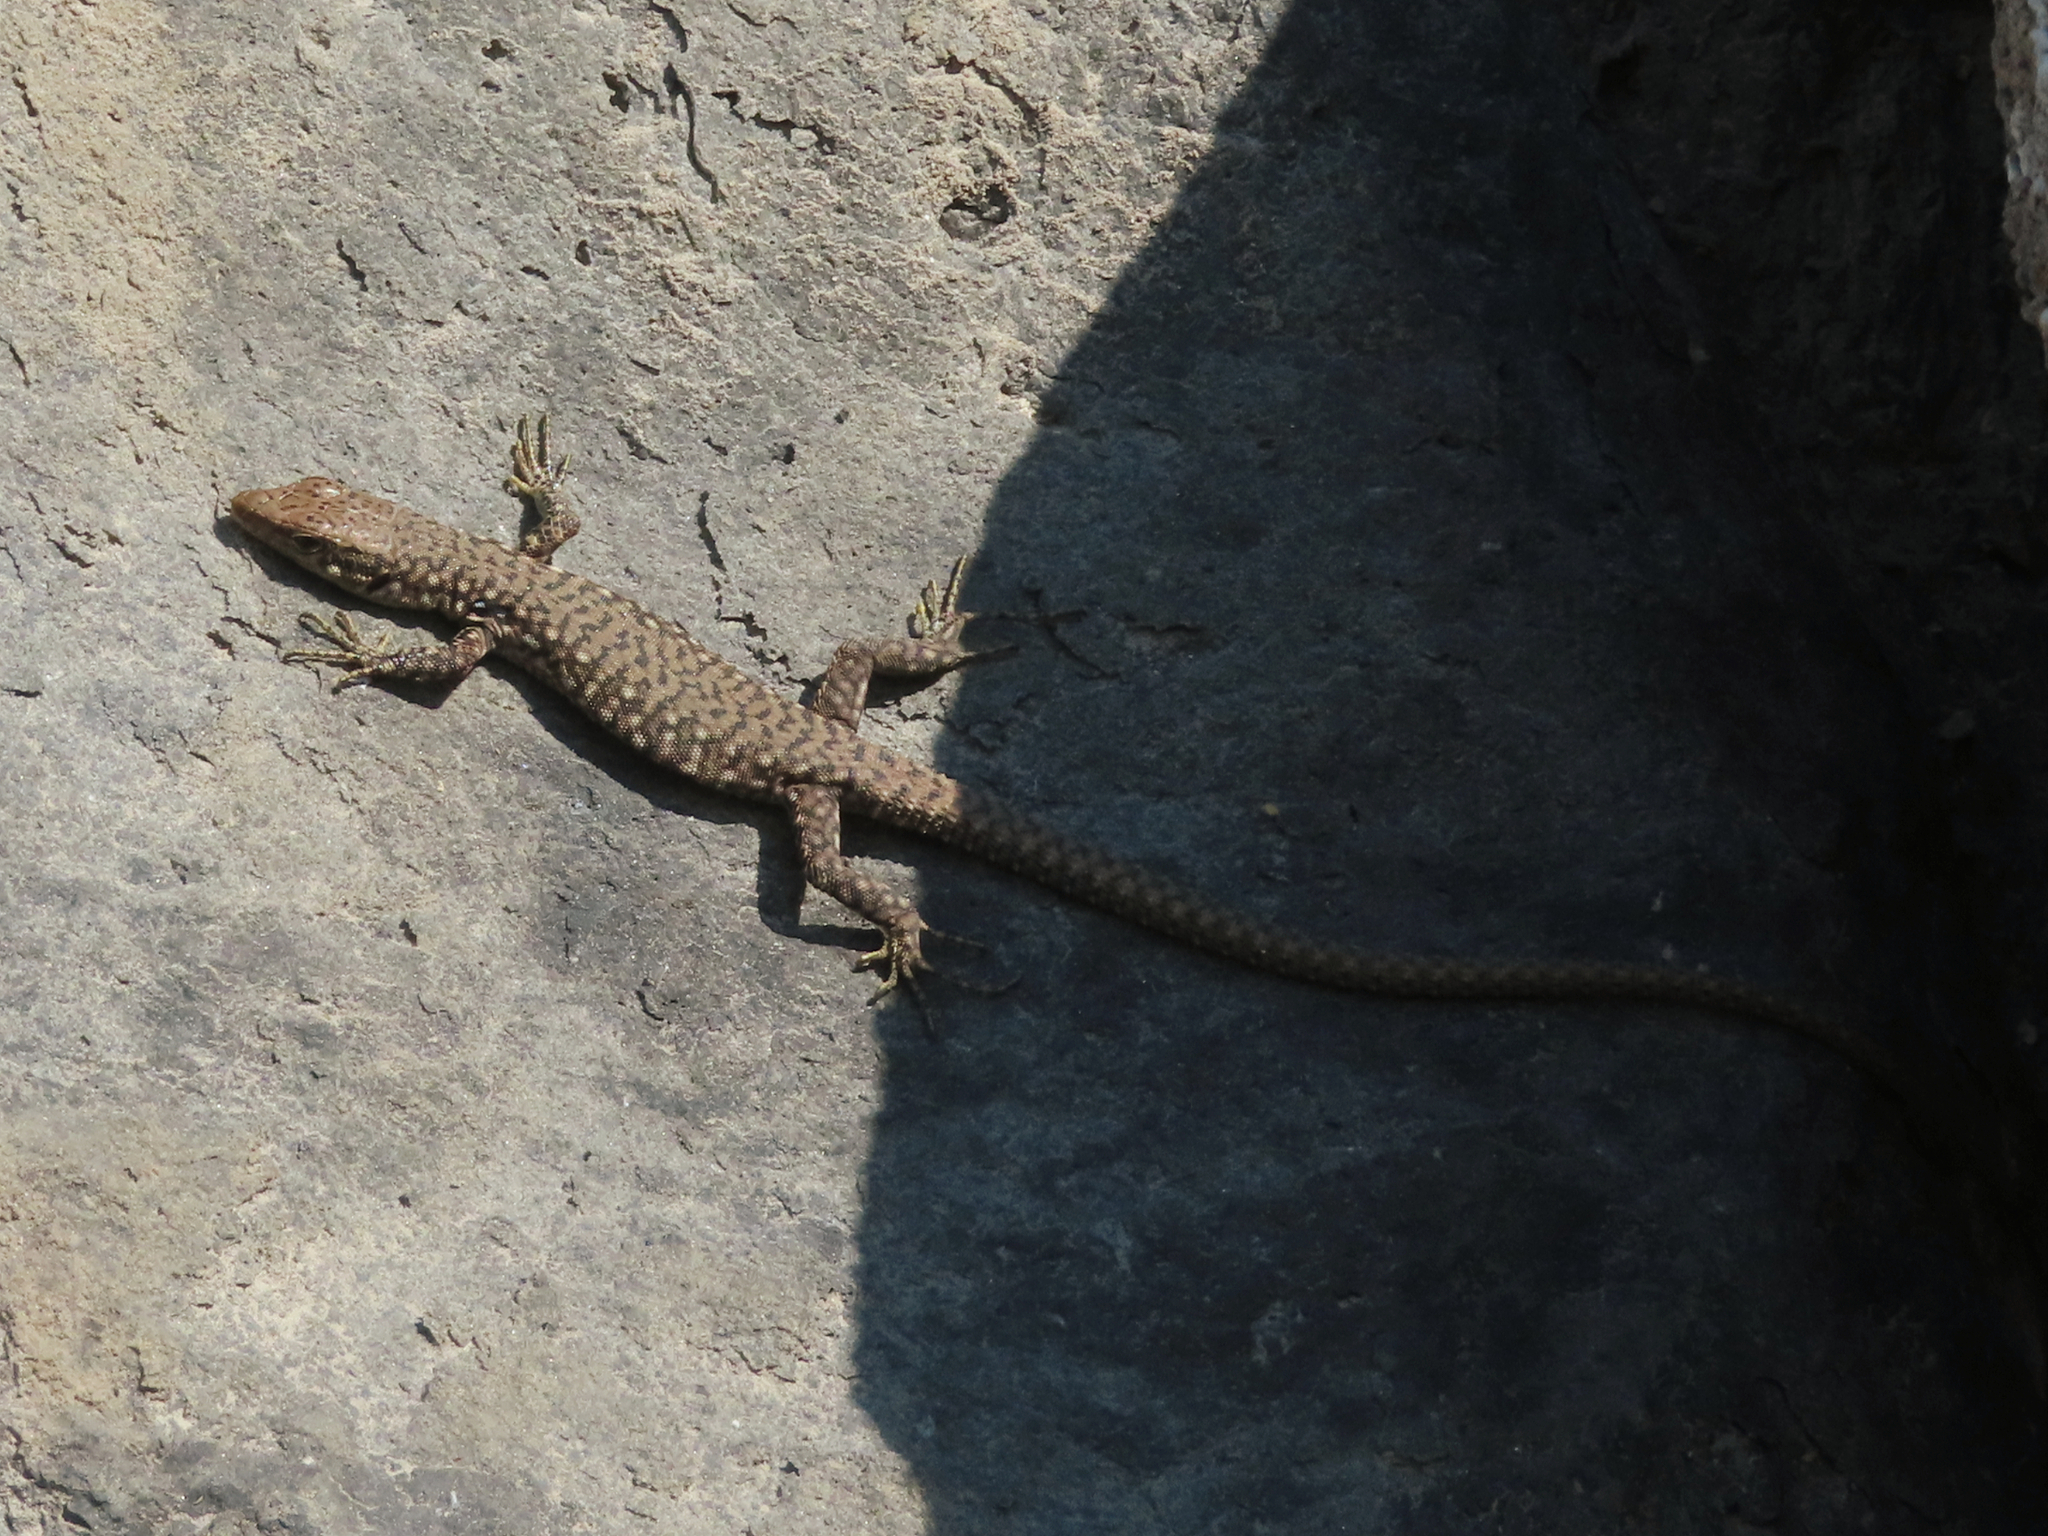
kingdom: Animalia
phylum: Chordata
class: Squamata
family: Lacertidae
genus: Darevskia
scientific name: Darevskia
